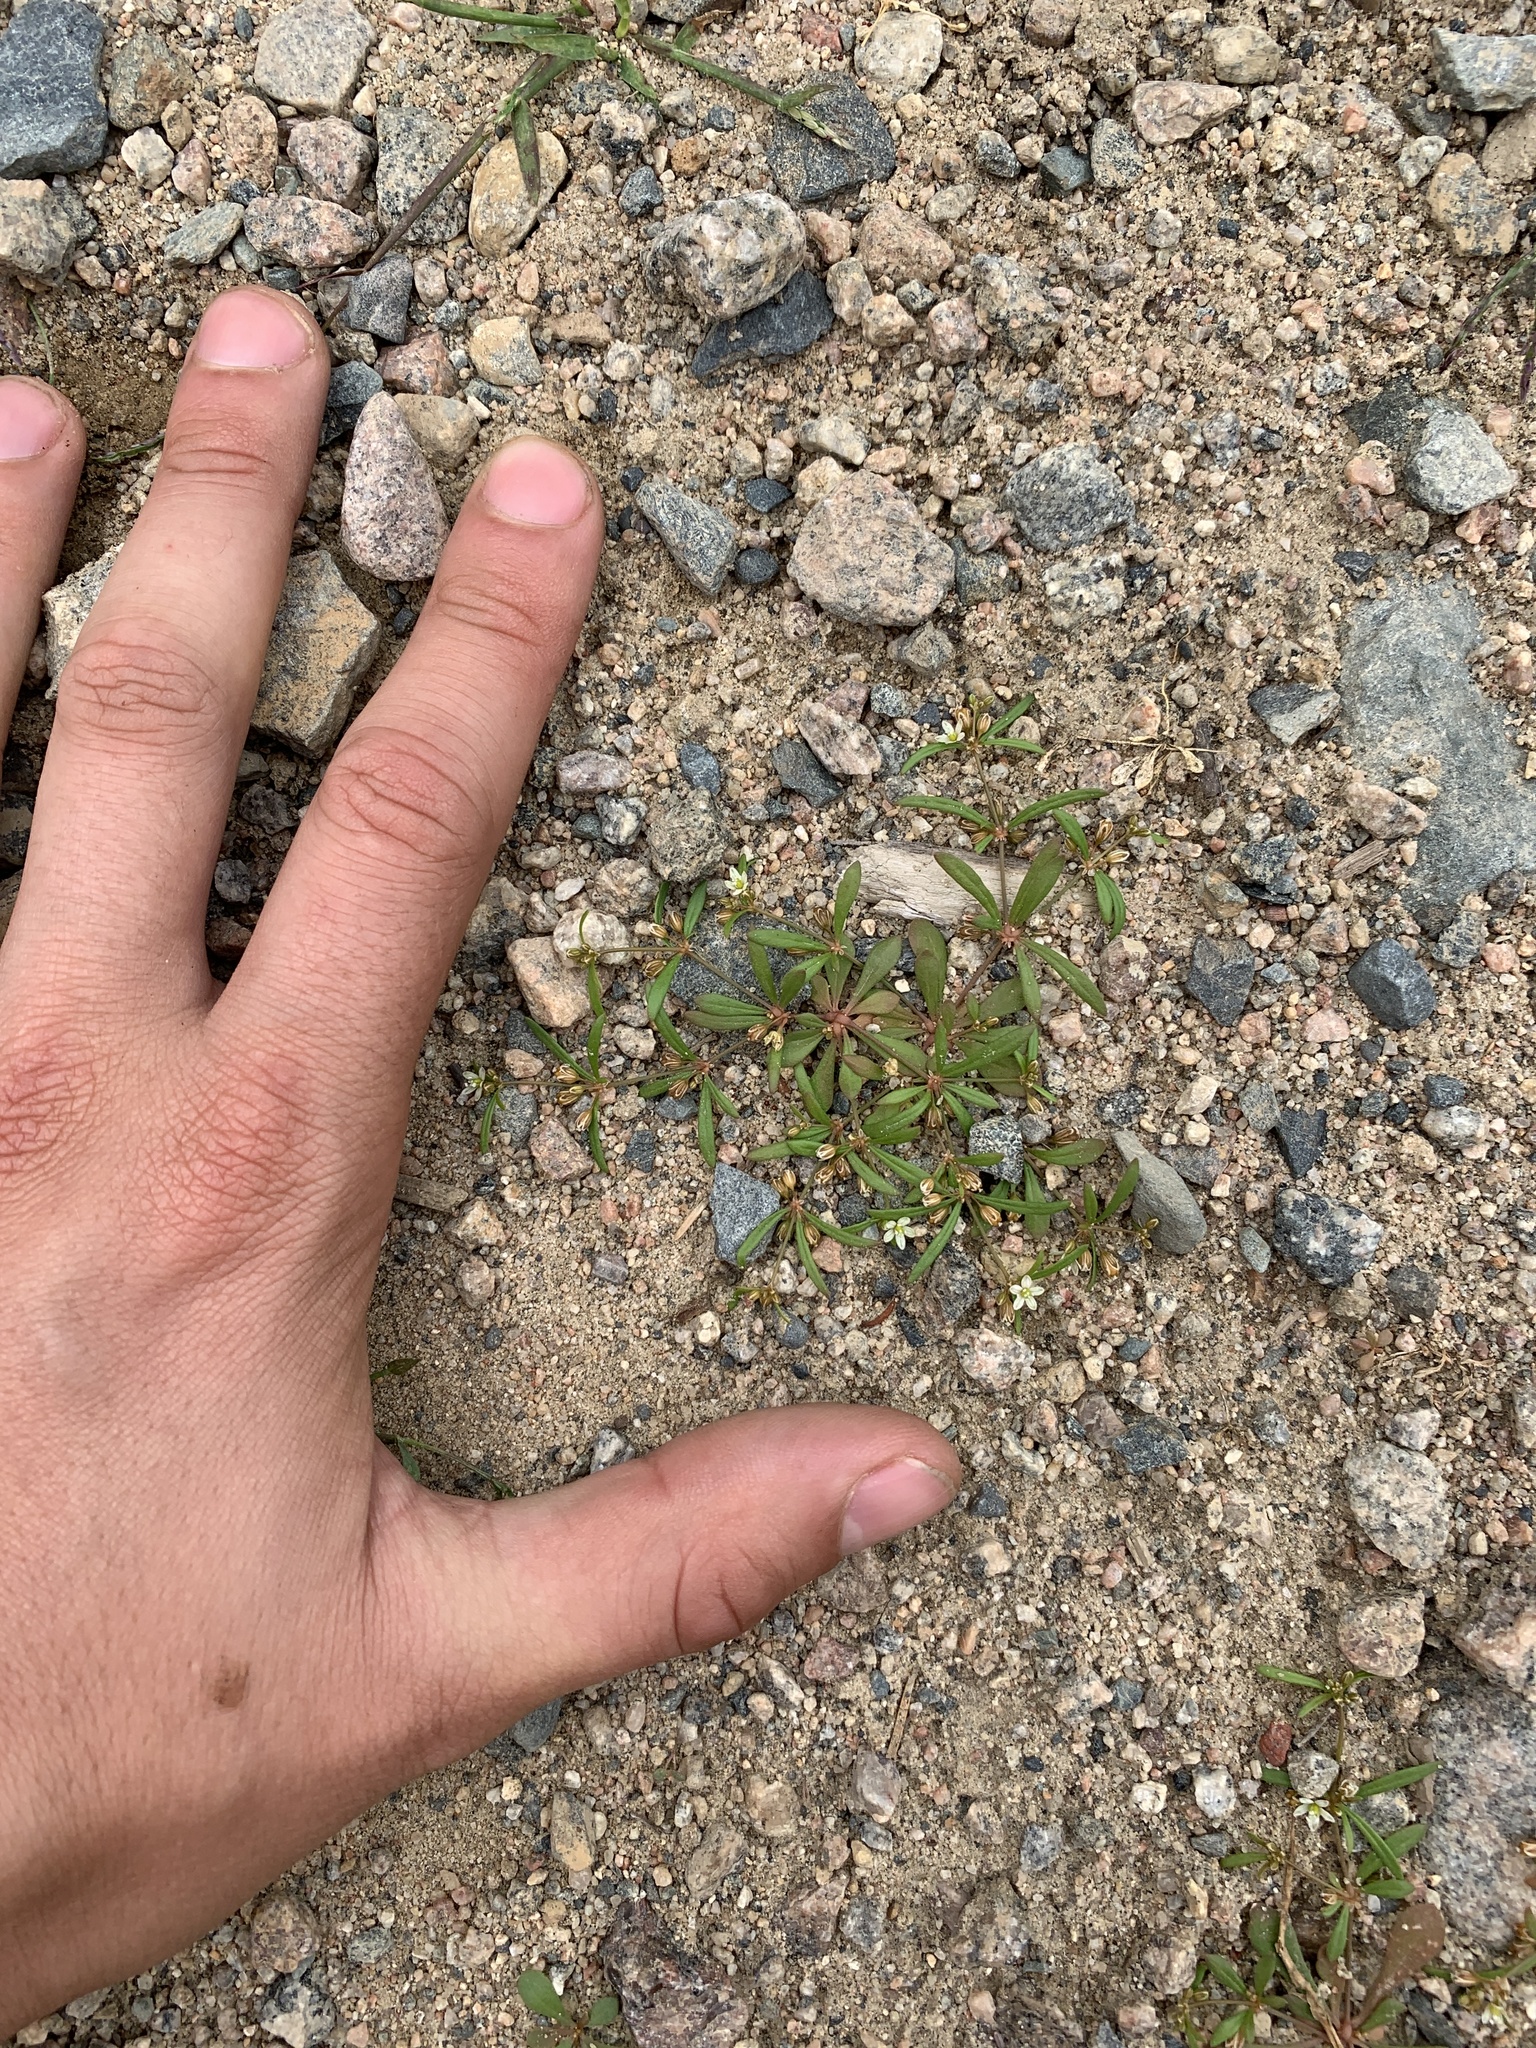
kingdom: Plantae
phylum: Tracheophyta
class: Magnoliopsida
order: Caryophyllales
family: Molluginaceae
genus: Mollugo
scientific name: Mollugo verticillata
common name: Green carpetweed
